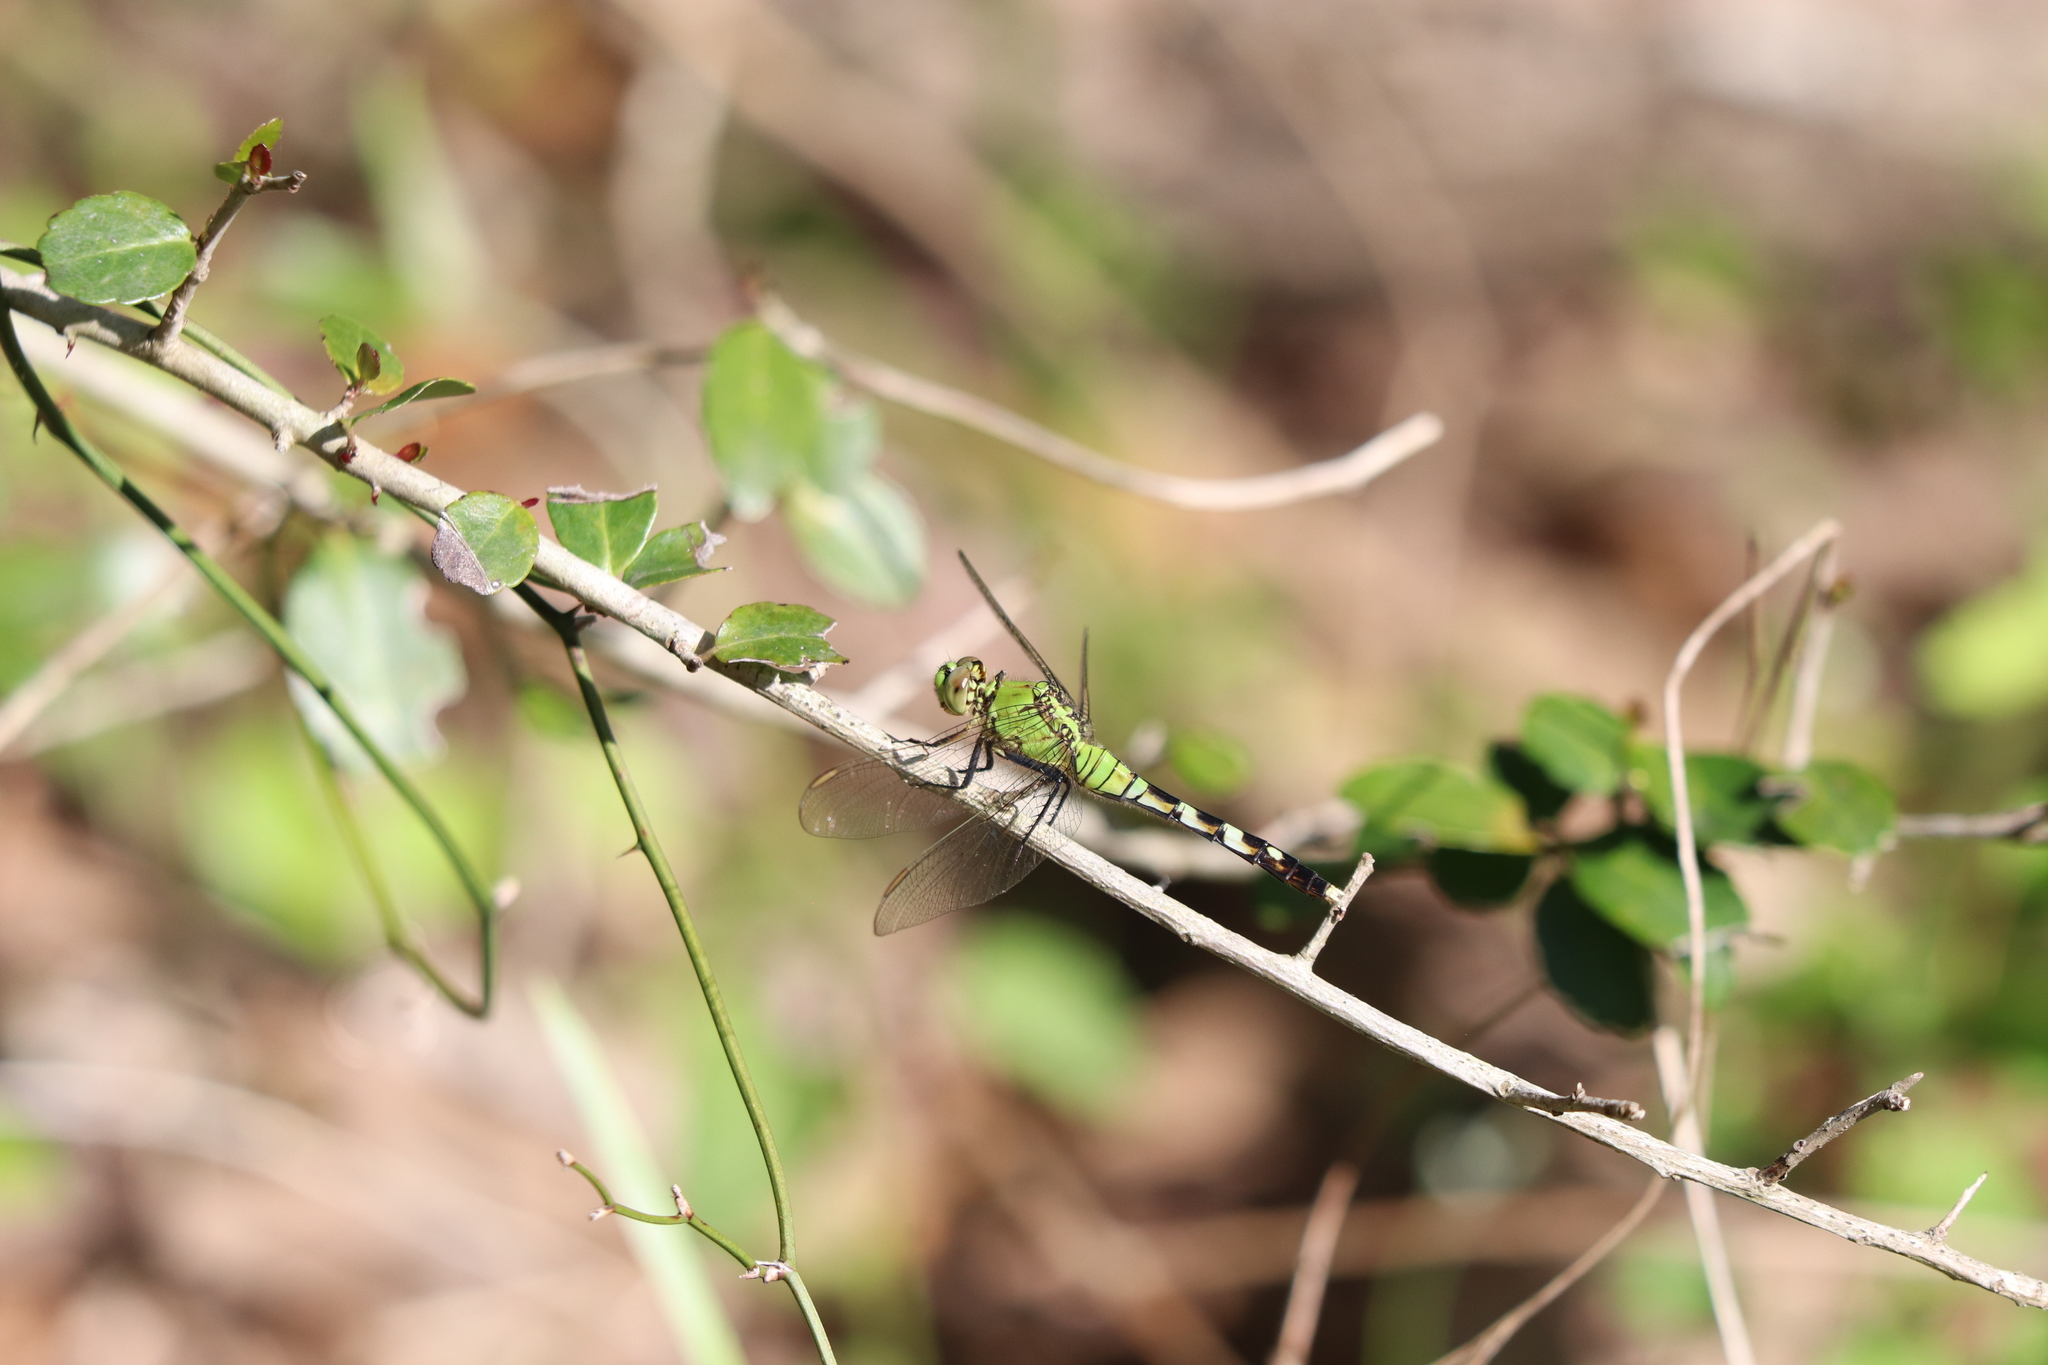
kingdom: Animalia
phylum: Arthropoda
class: Insecta
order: Odonata
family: Libellulidae
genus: Erythemis
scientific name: Erythemis simplicicollis
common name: Eastern pondhawk
